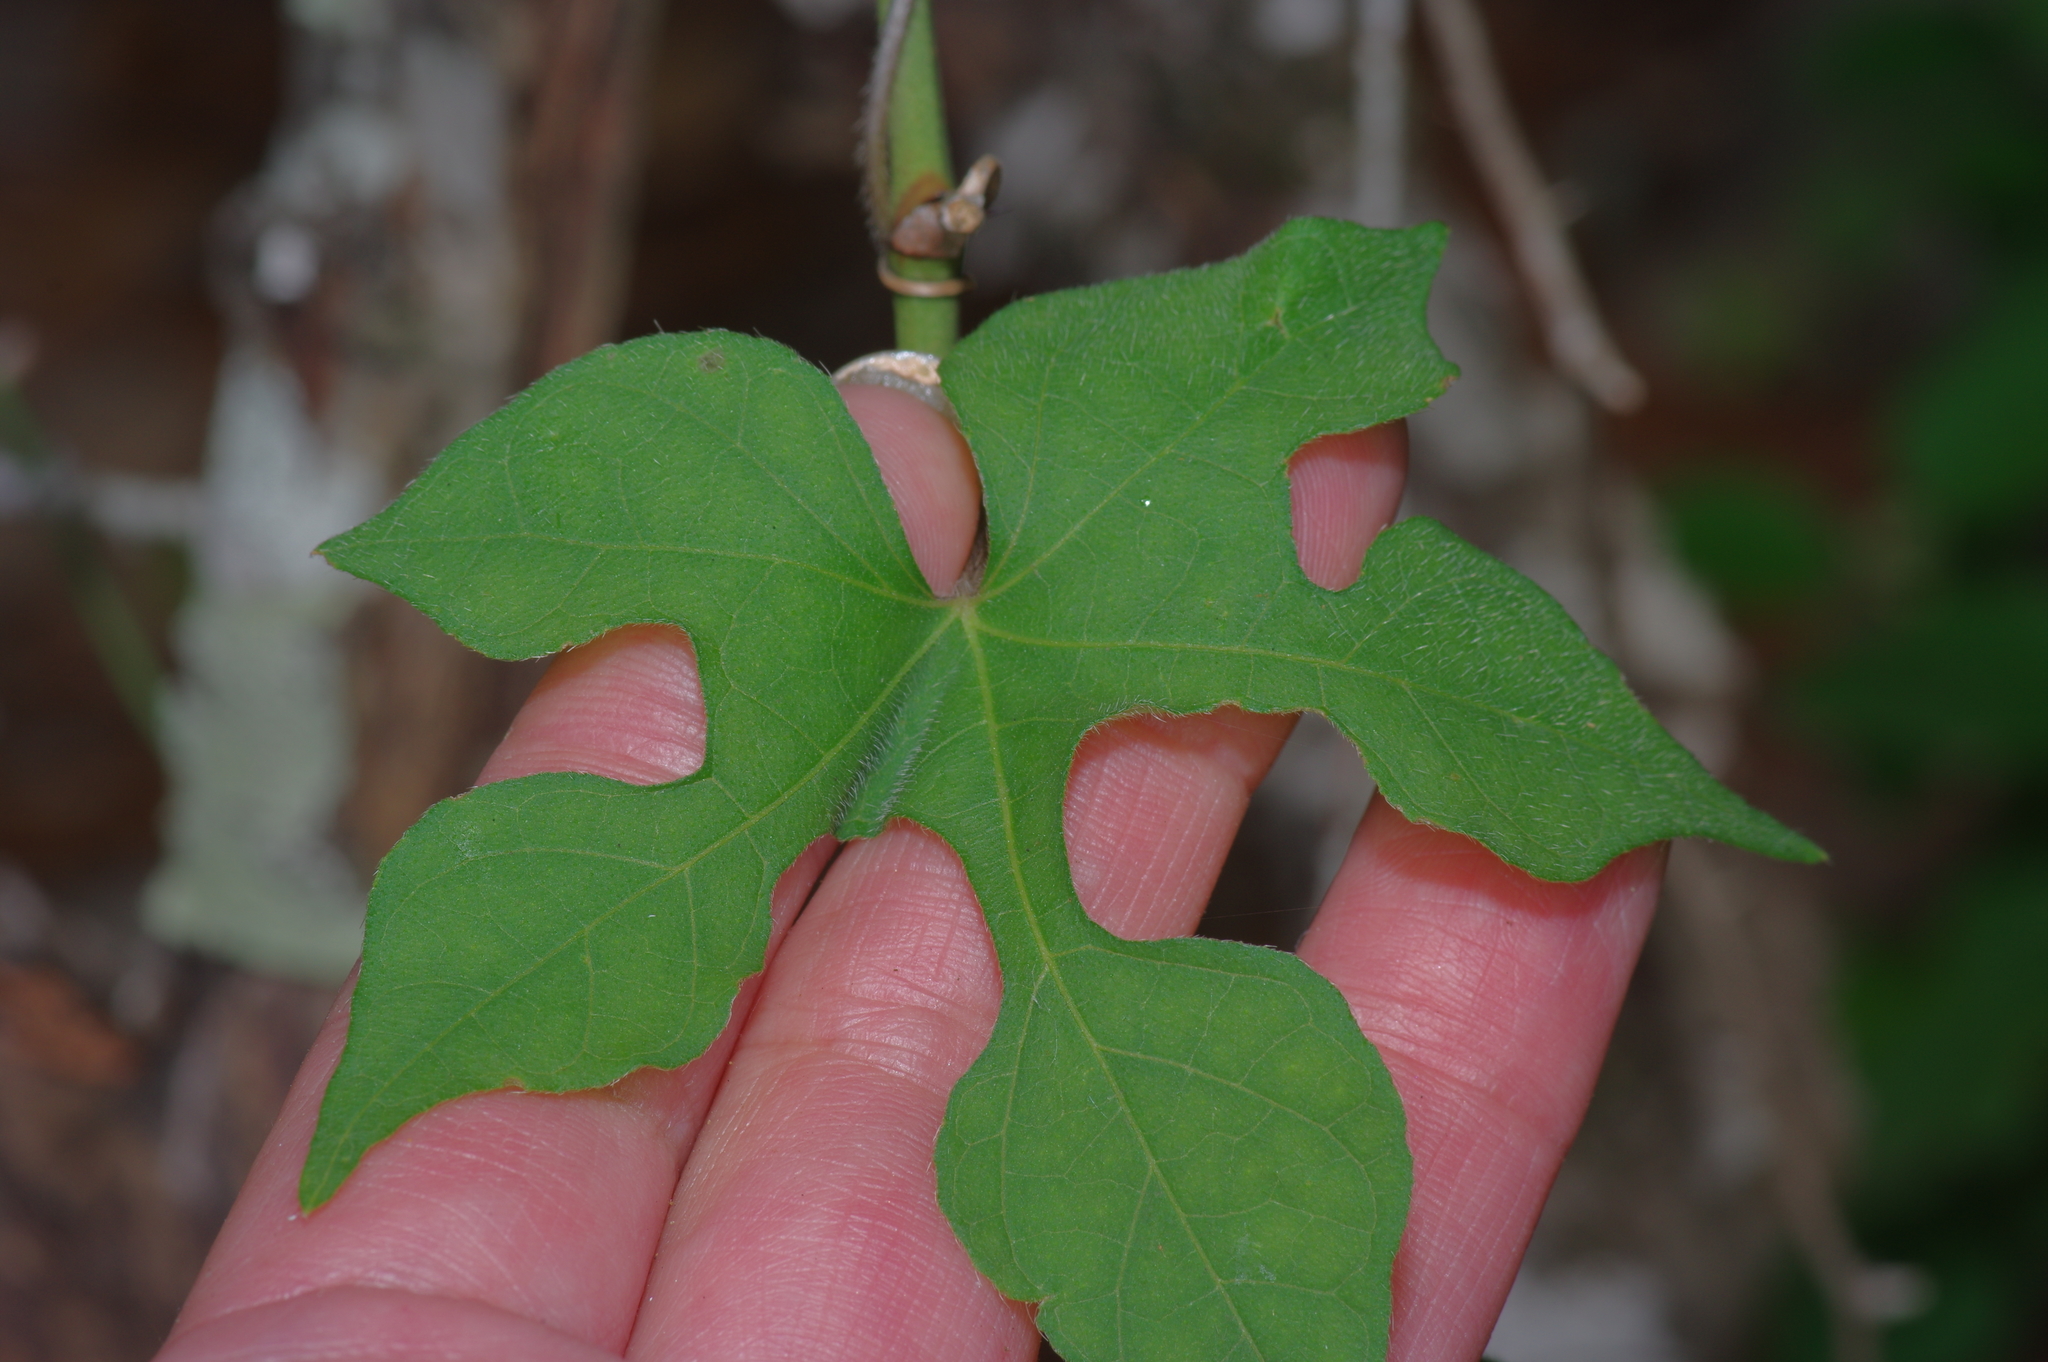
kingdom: Plantae
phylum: Tracheophyta
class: Magnoliopsida
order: Solanales
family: Convolvulaceae
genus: Ipomoea
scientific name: Ipomoea lindheimeri
